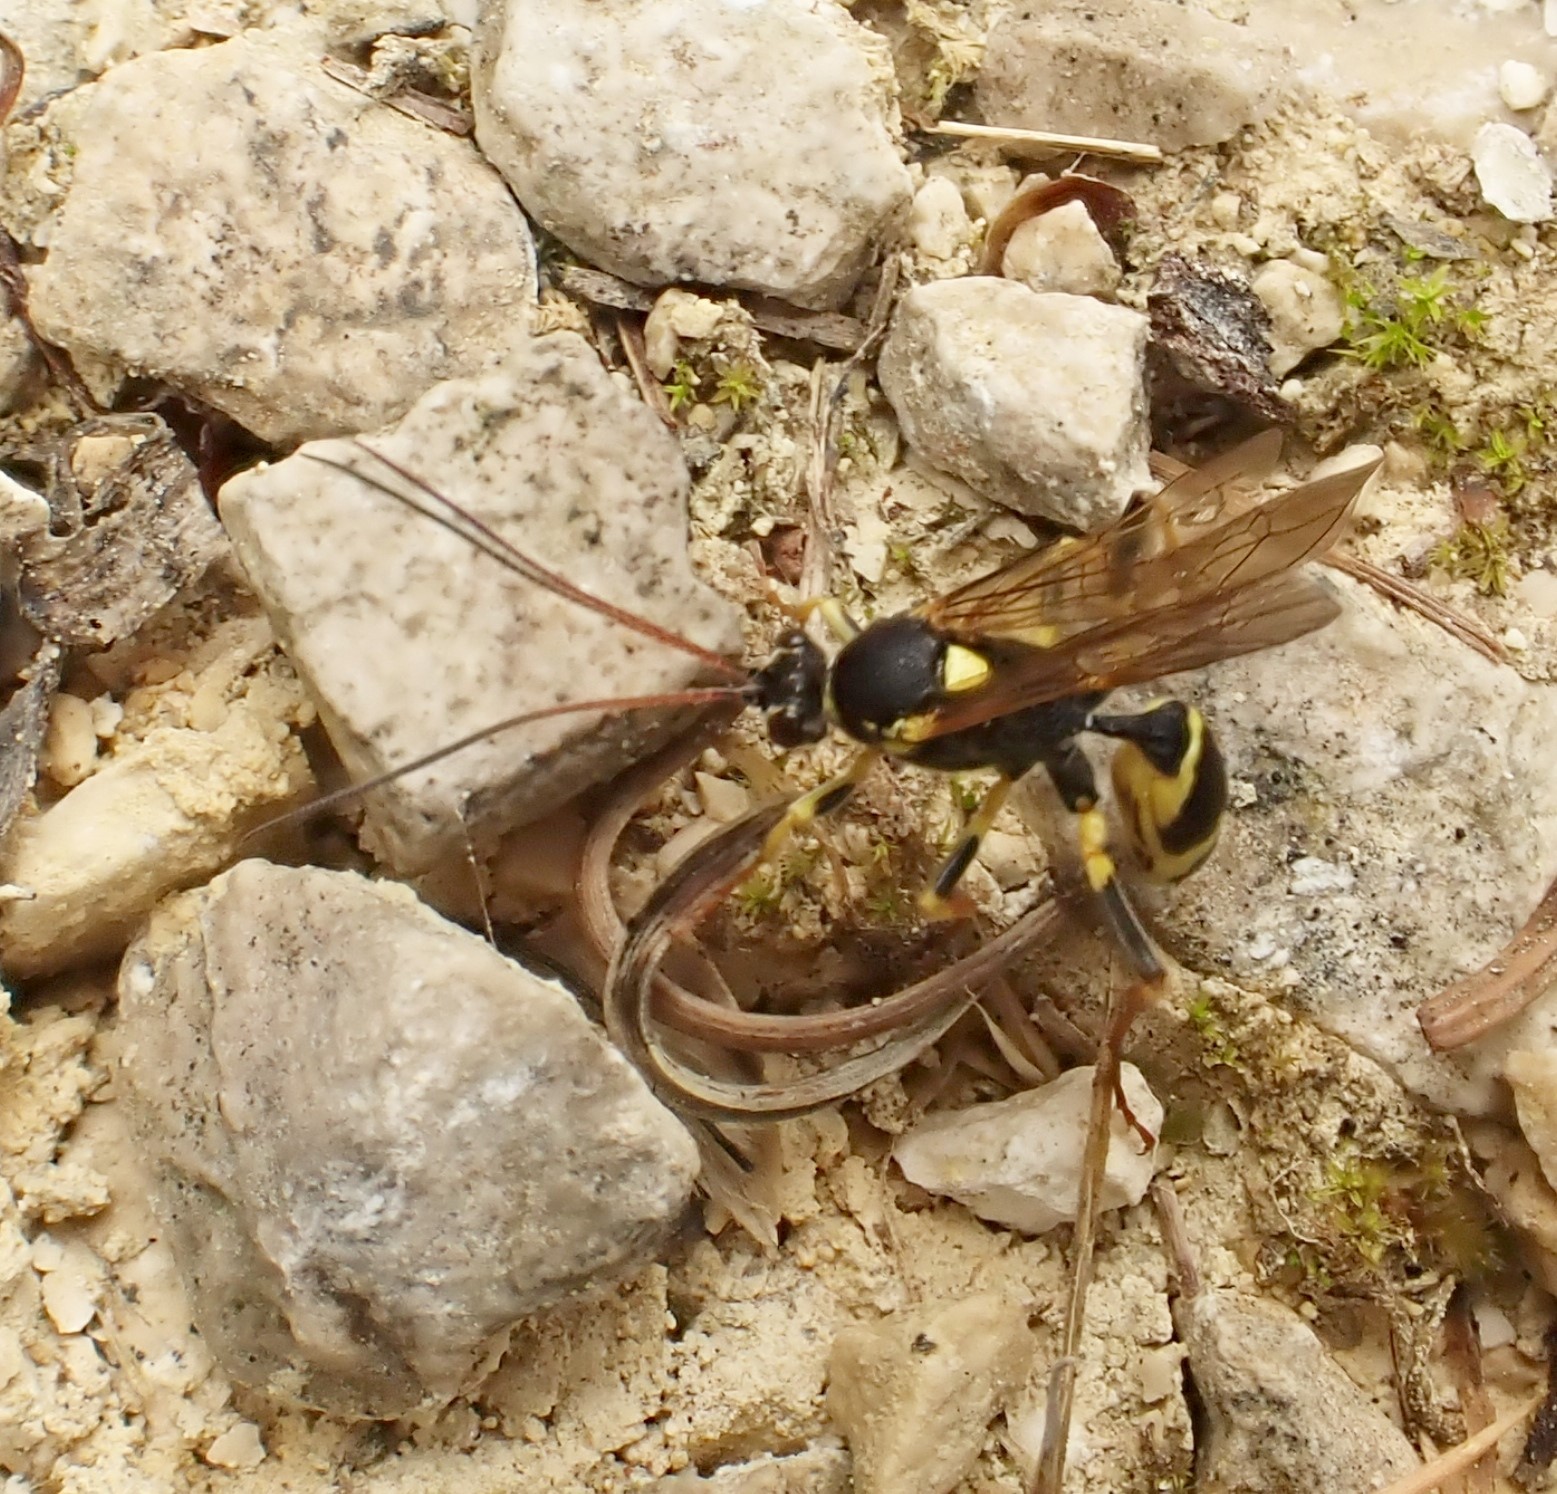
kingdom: Animalia
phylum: Arthropoda
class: Insecta
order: Hymenoptera
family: Ichneumonidae
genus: Amblyteles
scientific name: Amblyteles armatorius
